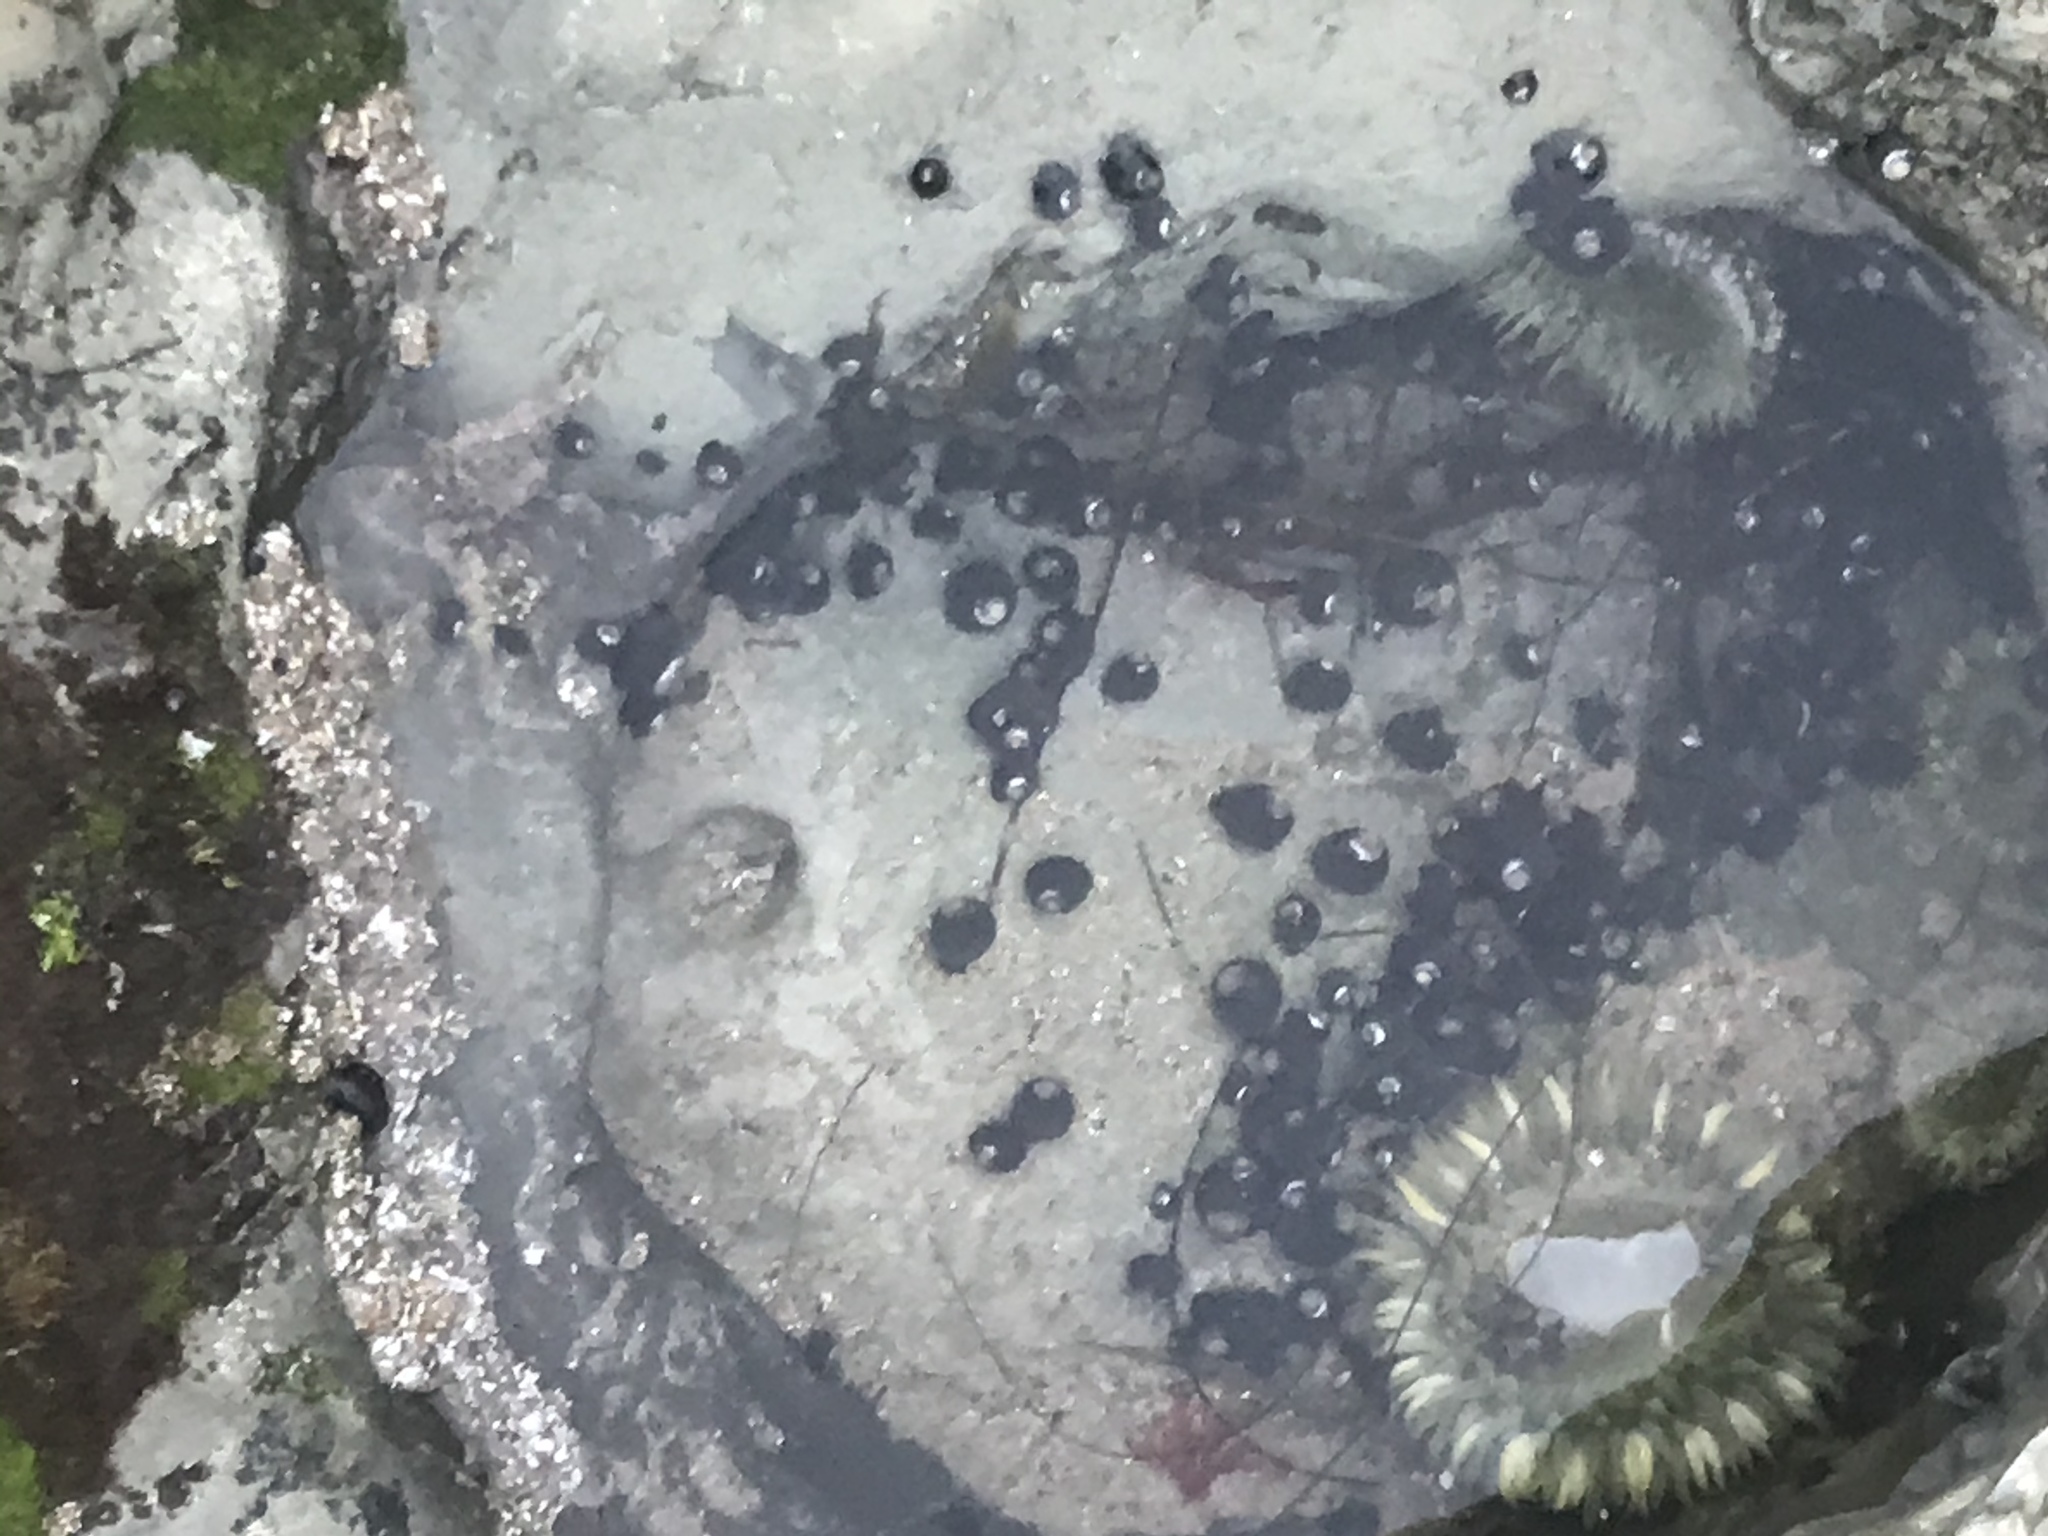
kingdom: Animalia
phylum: Mollusca
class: Gastropoda
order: Trochida
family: Tegulidae
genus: Tegula
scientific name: Tegula funebralis
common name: Black tegula
